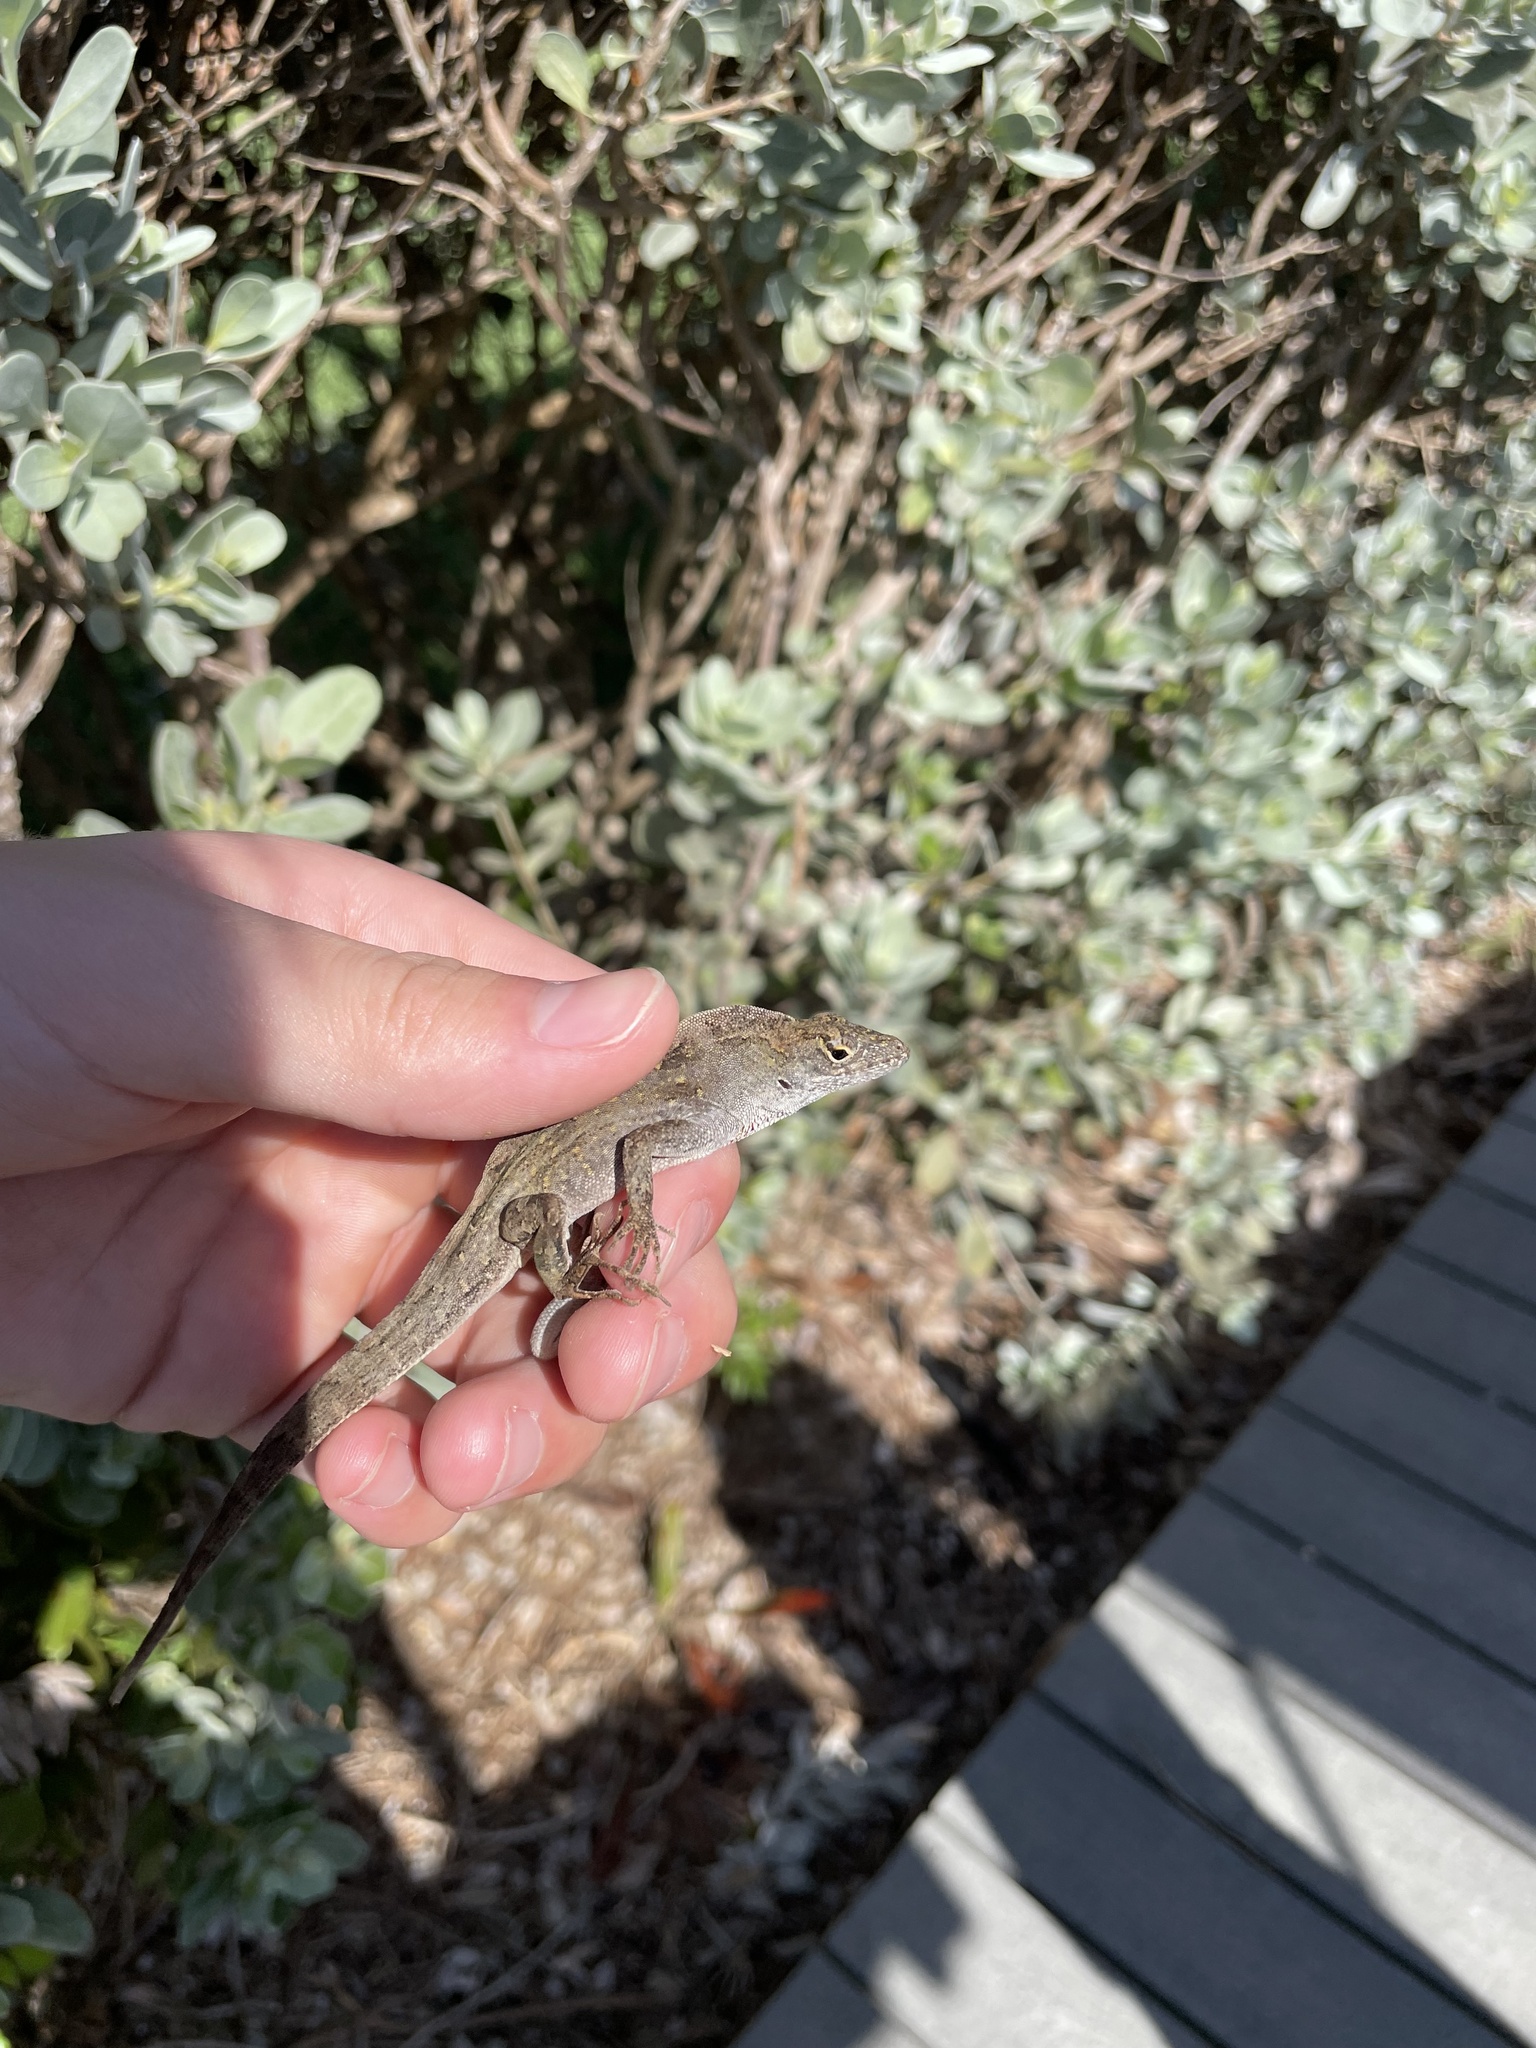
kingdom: Animalia
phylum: Chordata
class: Squamata
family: Dactyloidae
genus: Anolis
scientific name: Anolis sagrei
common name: Brown anole
